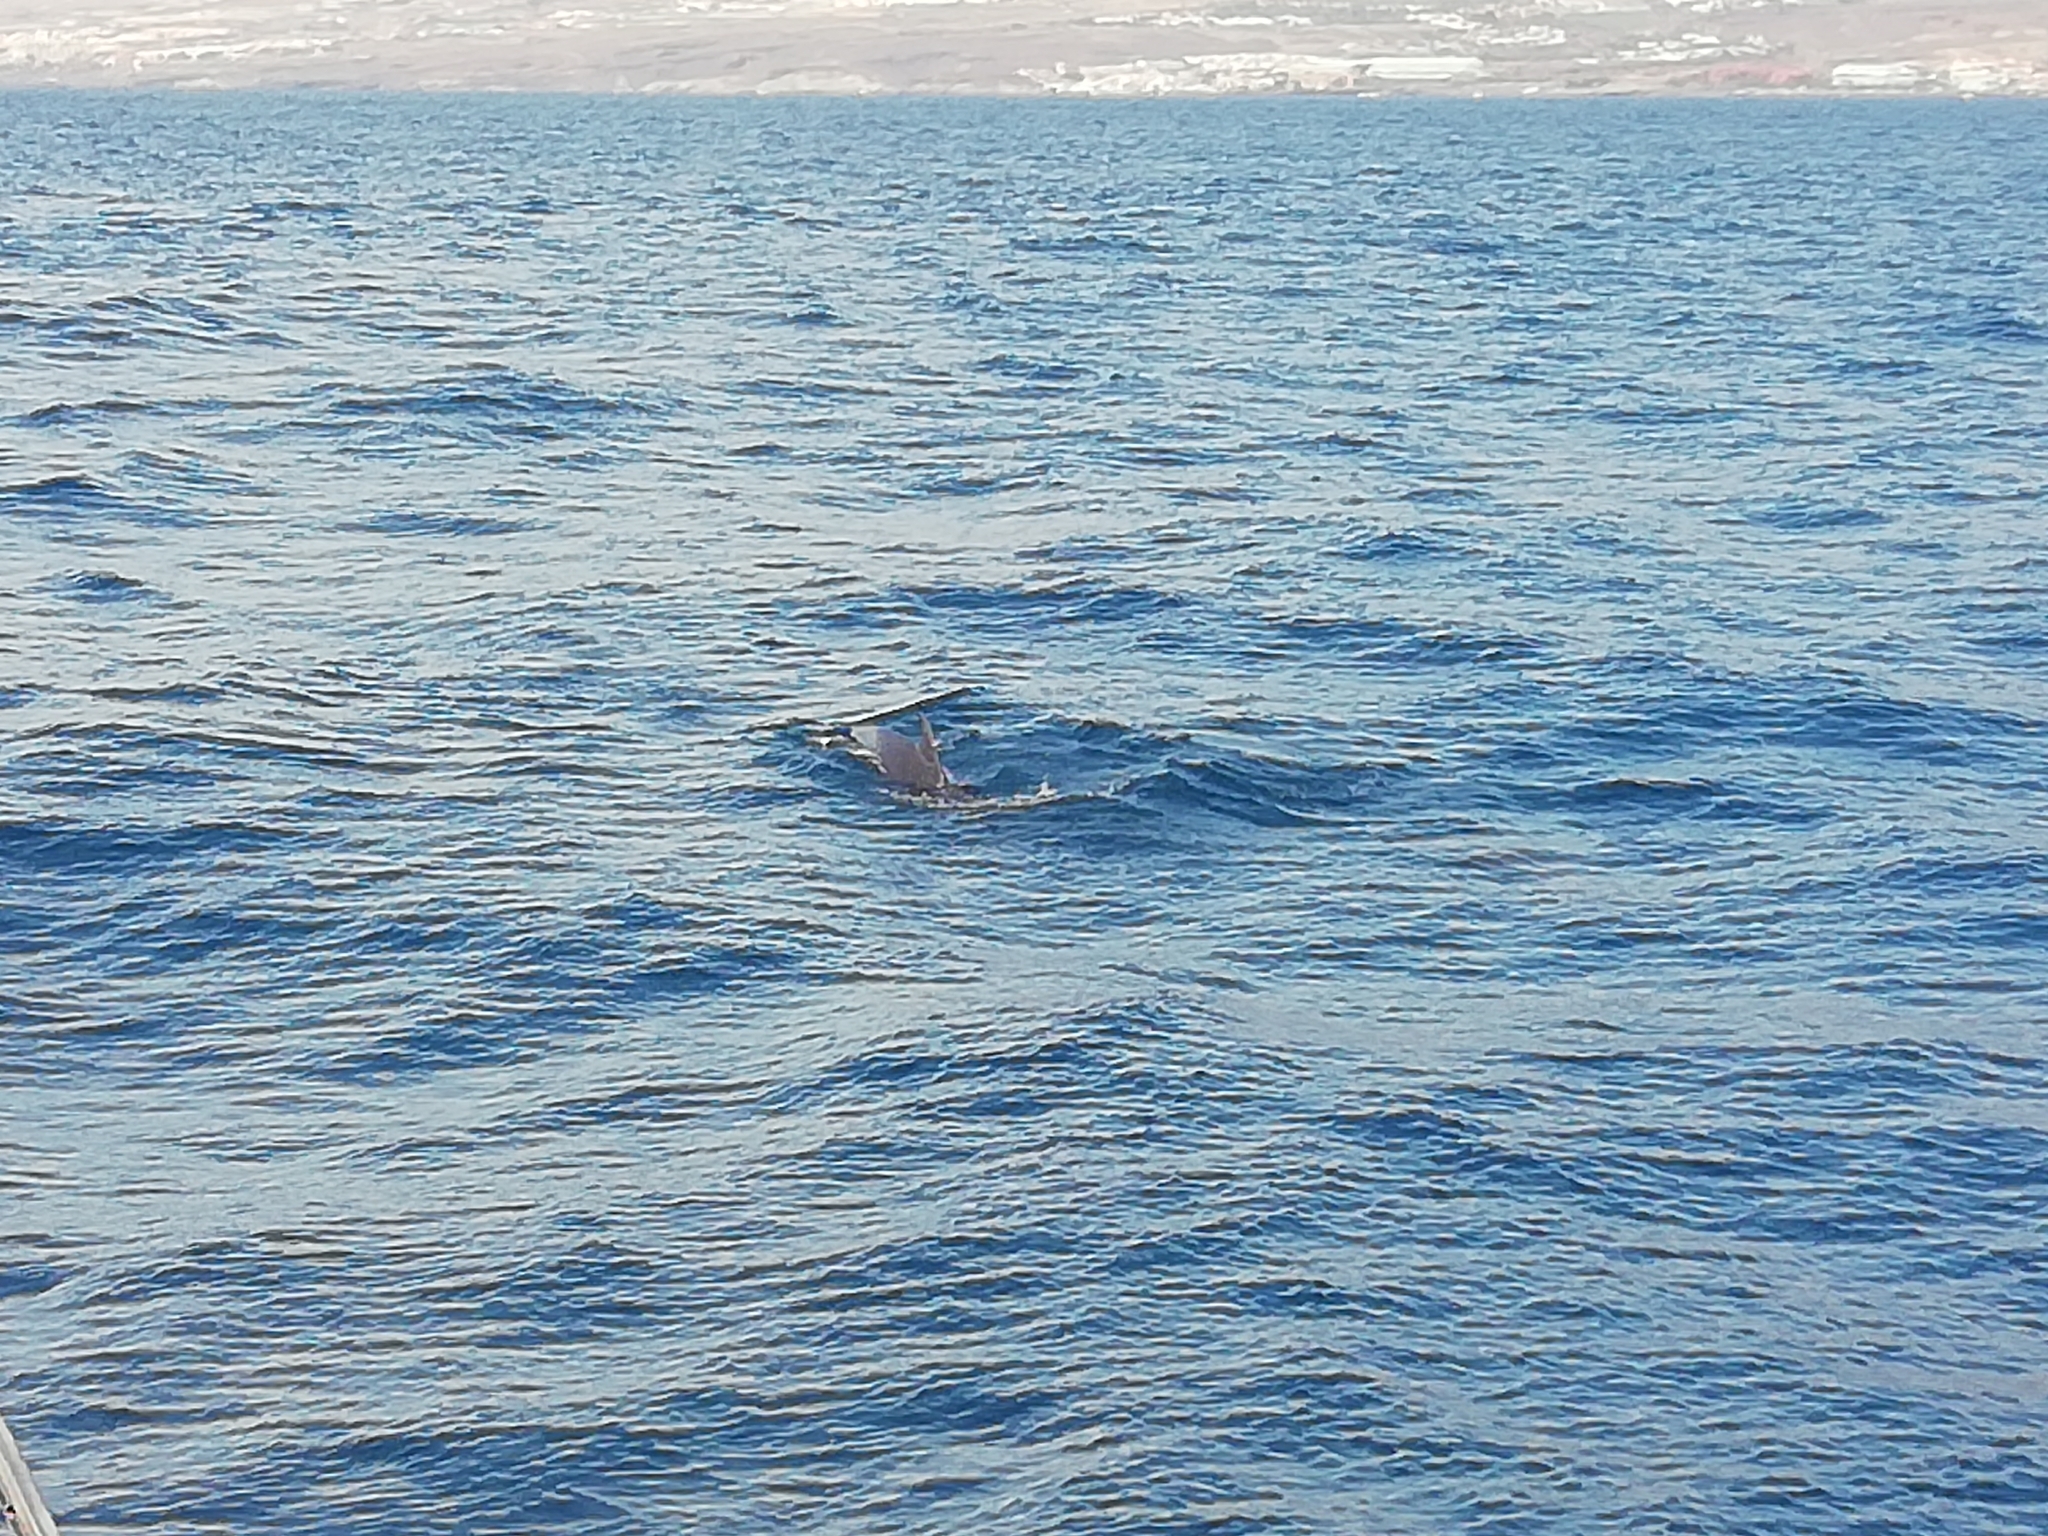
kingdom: Animalia
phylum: Chordata
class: Mammalia
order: Cetacea
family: Delphinidae
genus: Globicephala
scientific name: Globicephala macrorhynchus
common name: Short-finned pilot whale
